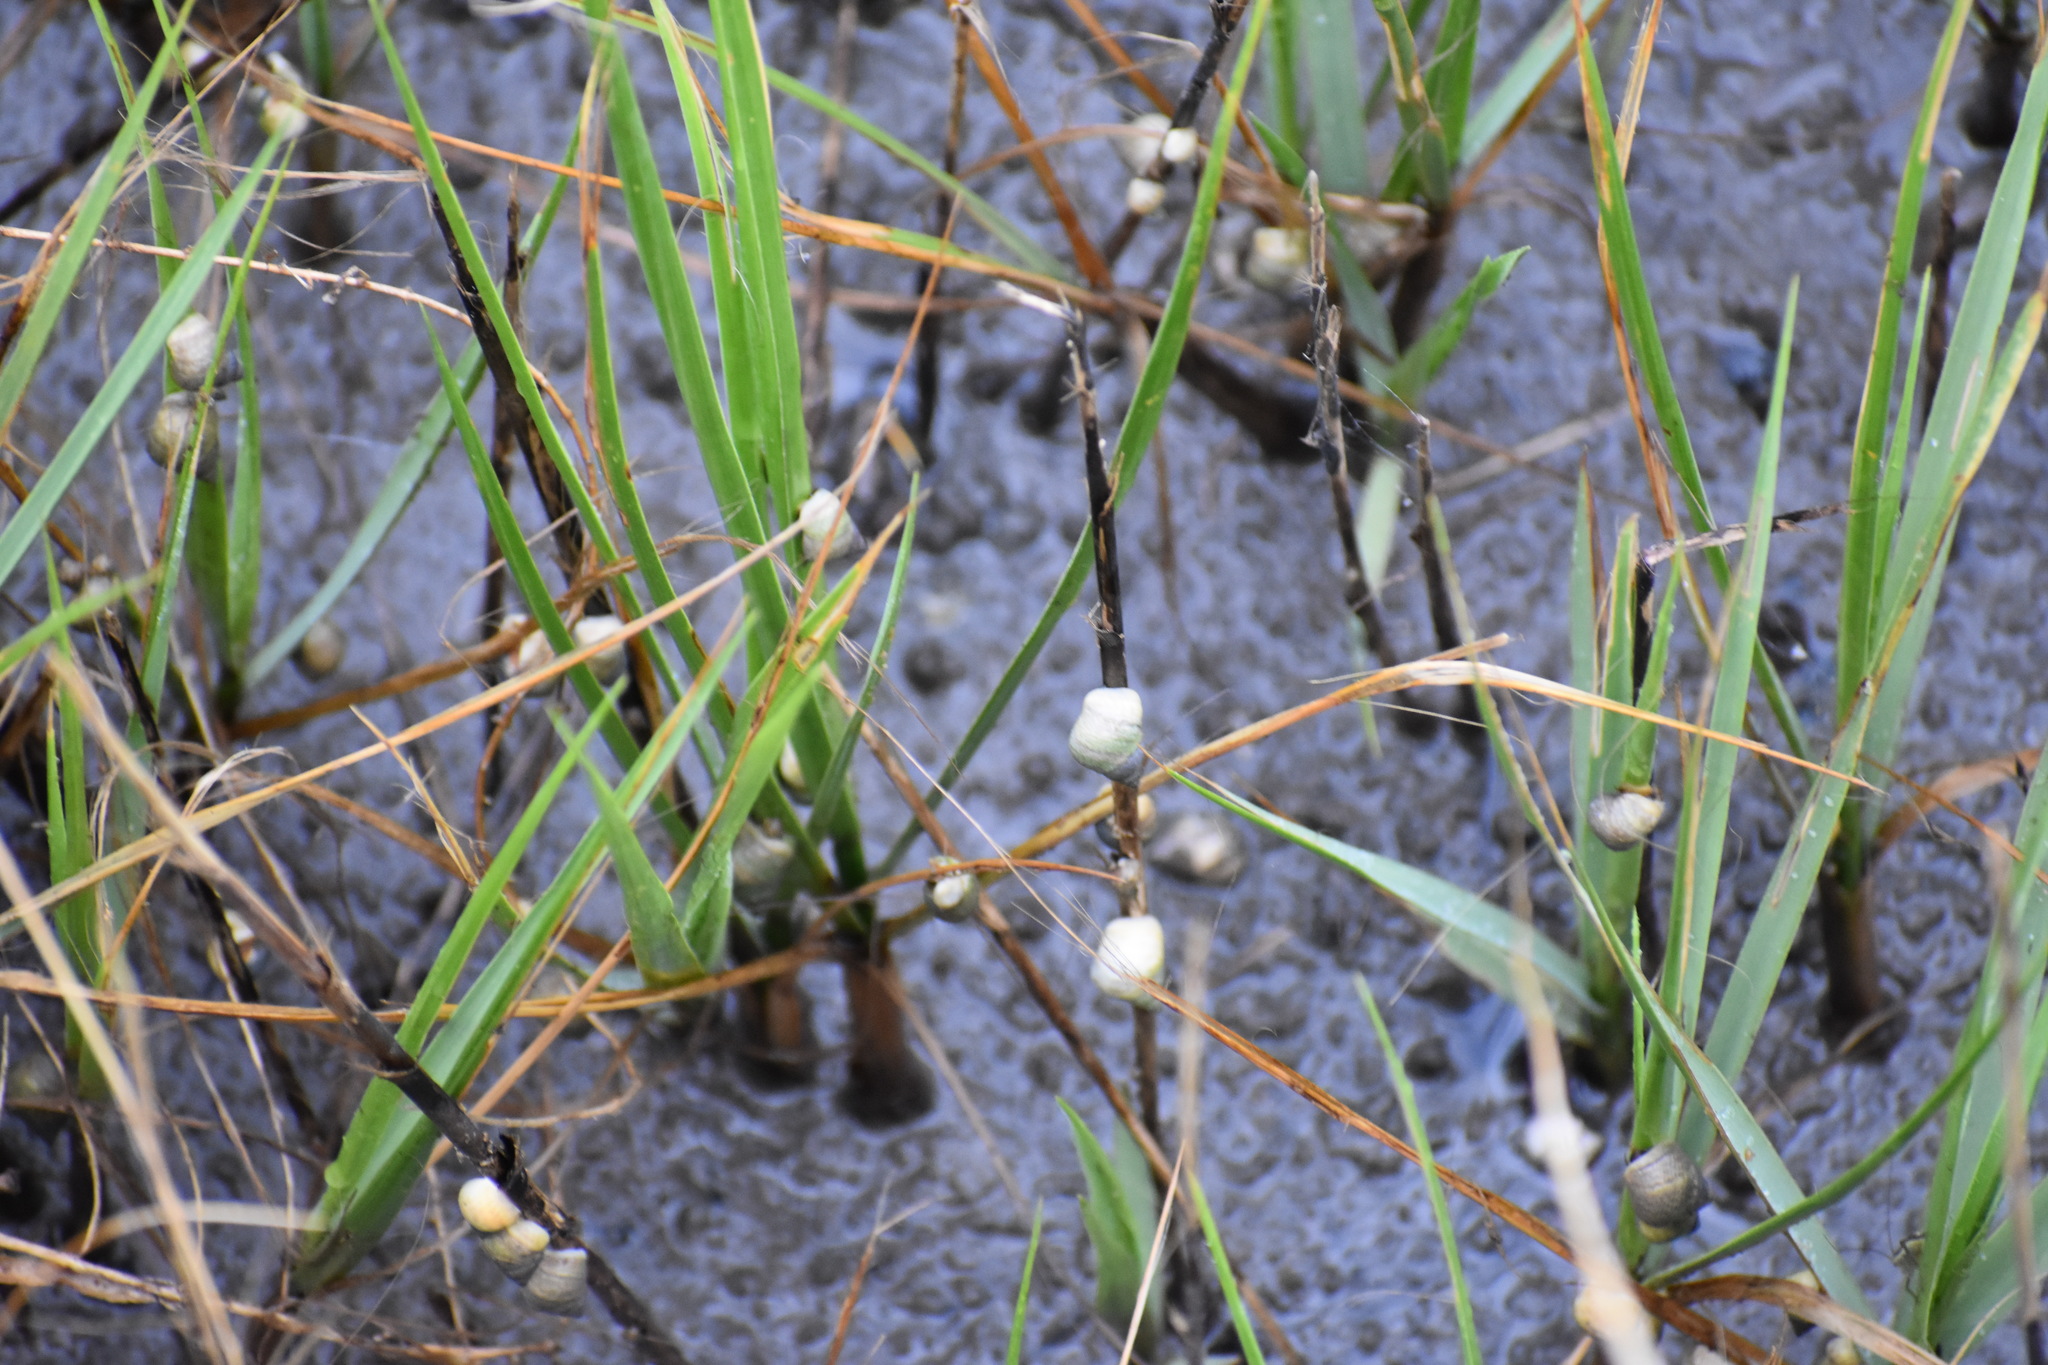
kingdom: Animalia
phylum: Mollusca
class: Gastropoda
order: Littorinimorpha
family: Littorinidae
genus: Littoraria
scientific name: Littoraria irrorata
